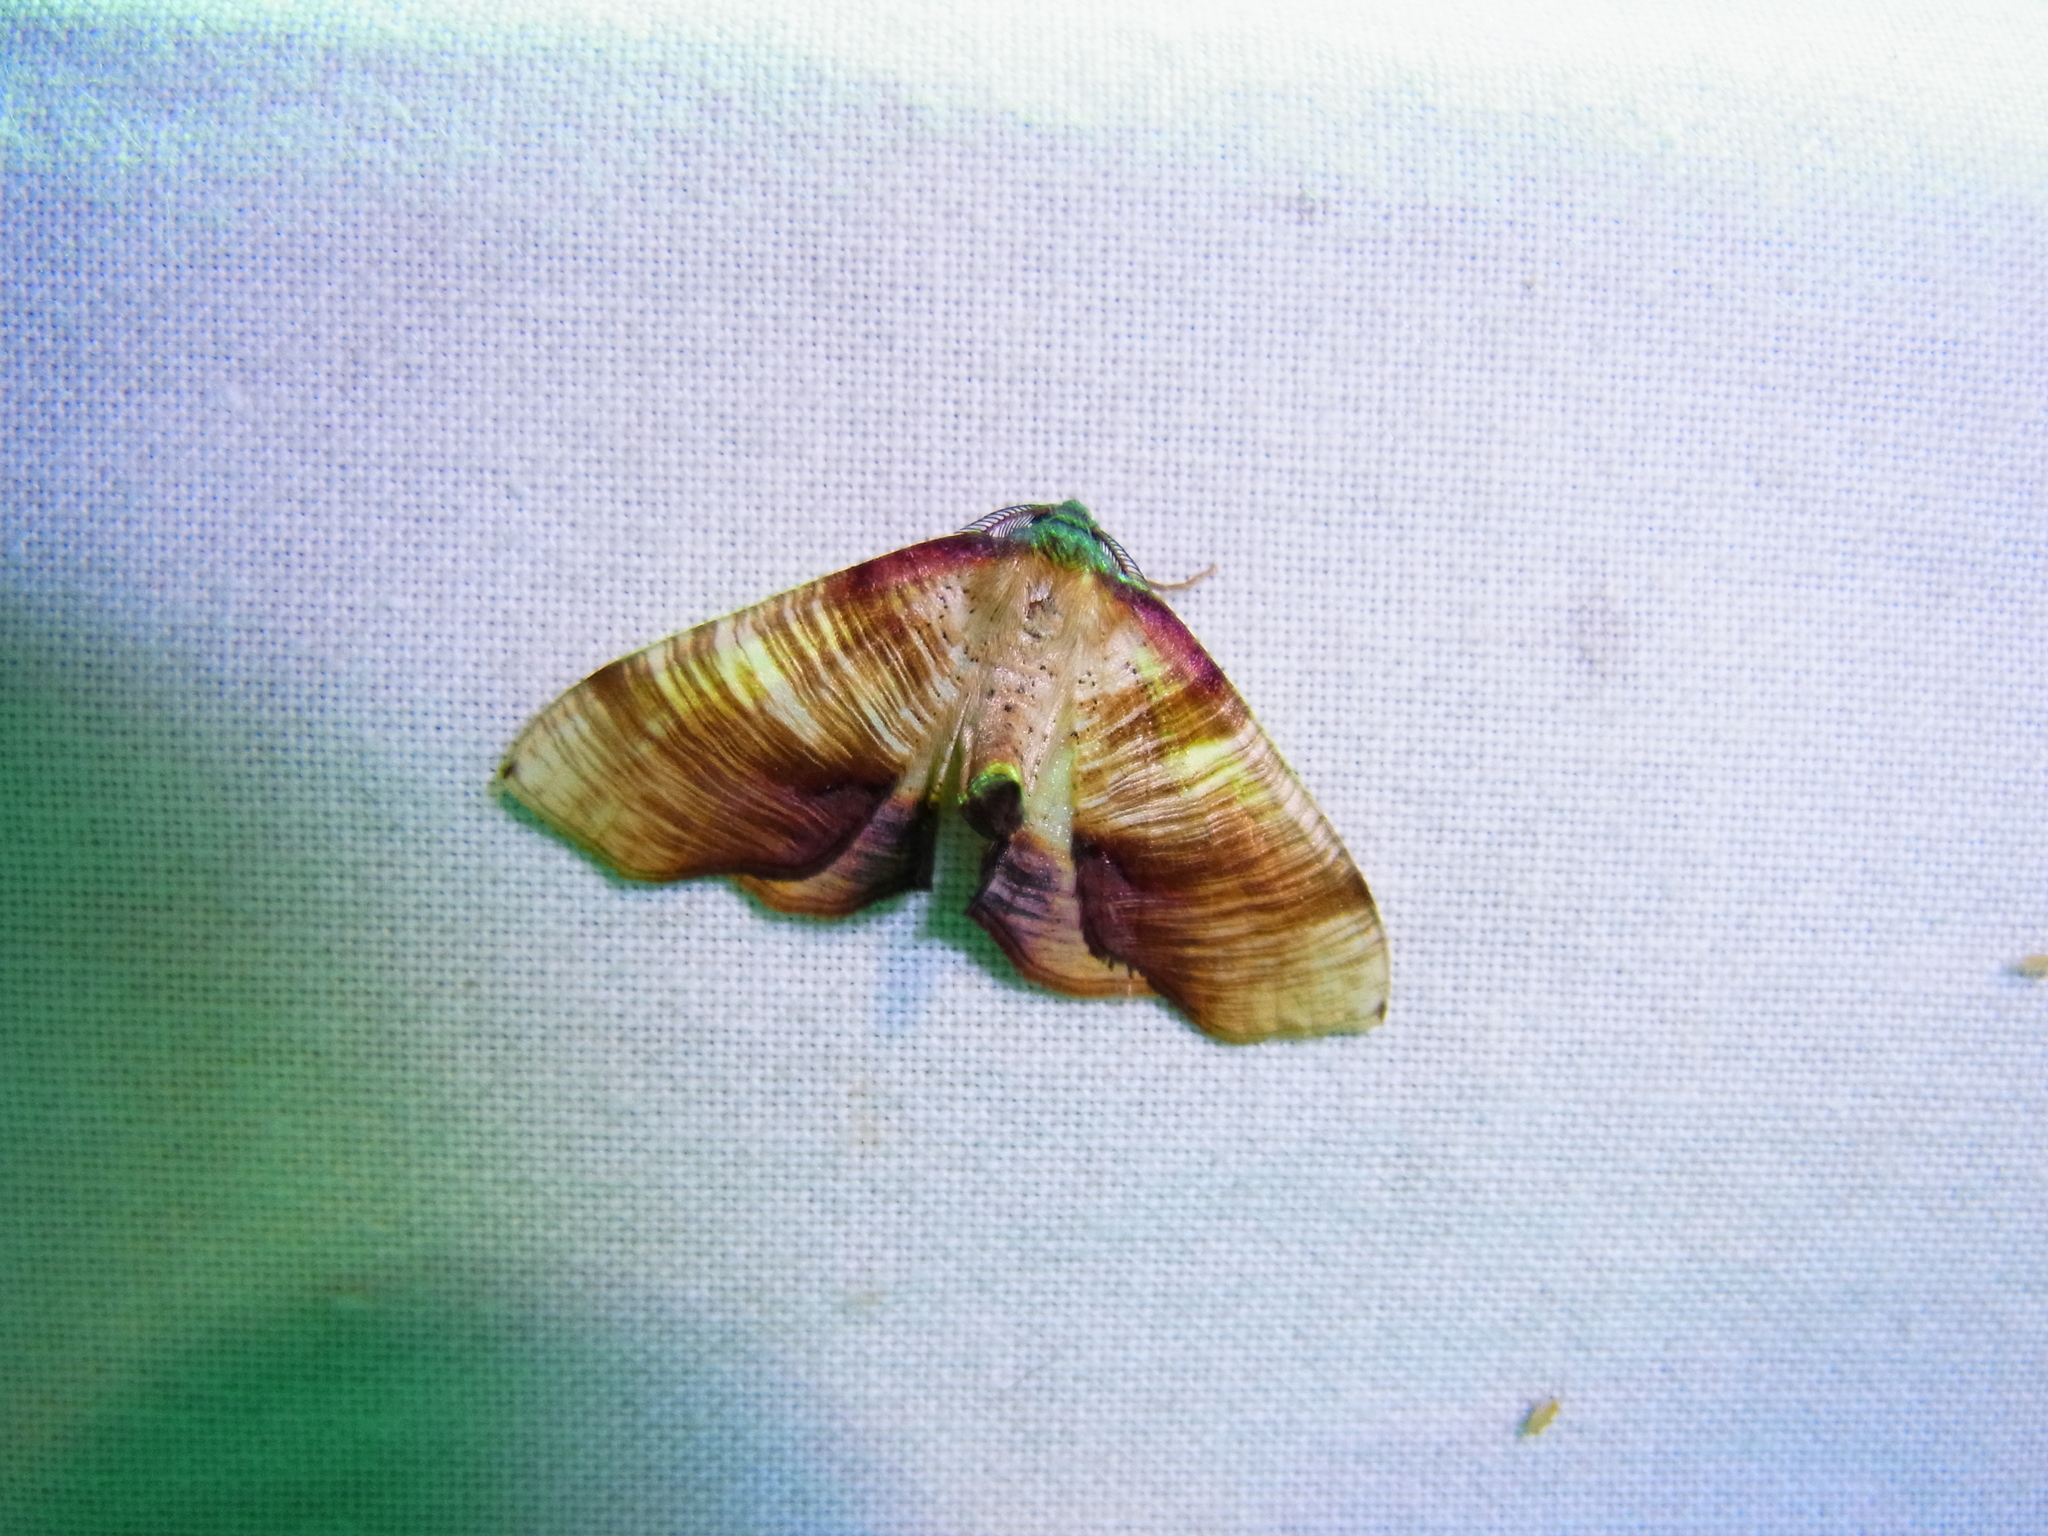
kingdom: Animalia
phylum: Arthropoda
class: Insecta
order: Lepidoptera
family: Geometridae
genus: Plagodis
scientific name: Plagodis dolabraria
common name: Scorched wing
